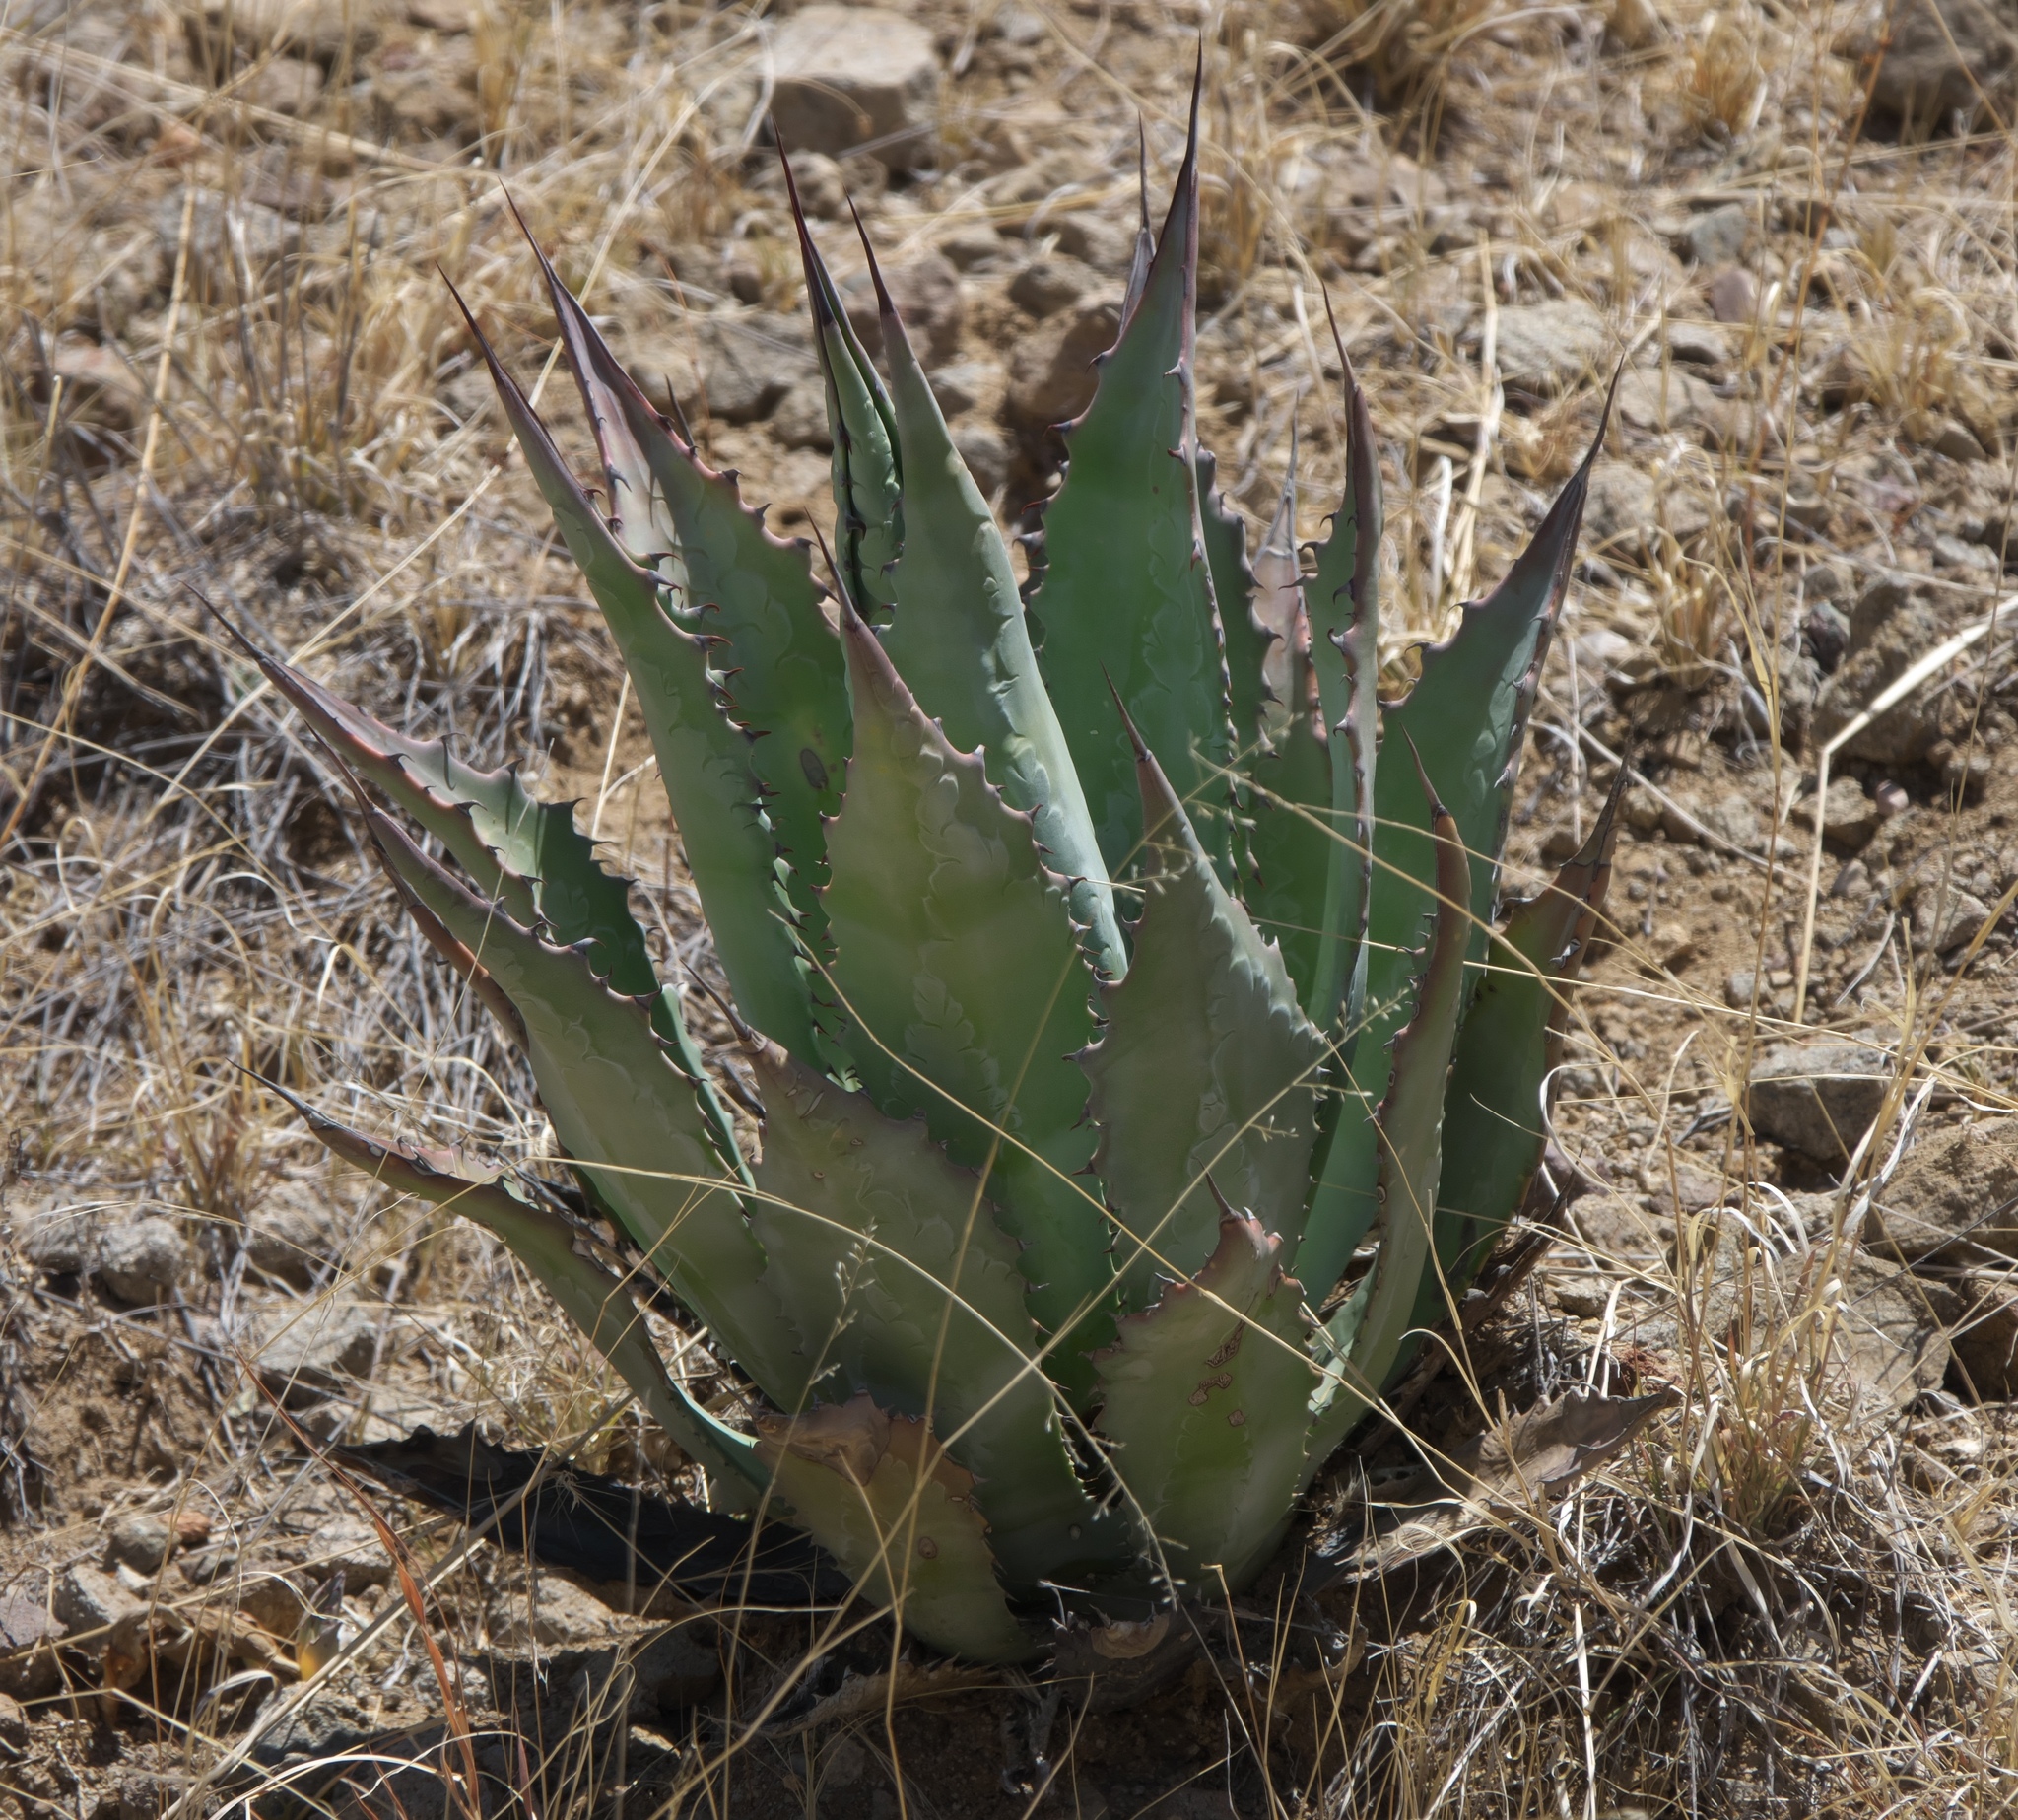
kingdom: Plantae
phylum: Tracheophyta
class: Liliopsida
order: Asparagales
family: Asparagaceae
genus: Agave
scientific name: Agave palmeri
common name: Palmer agave
